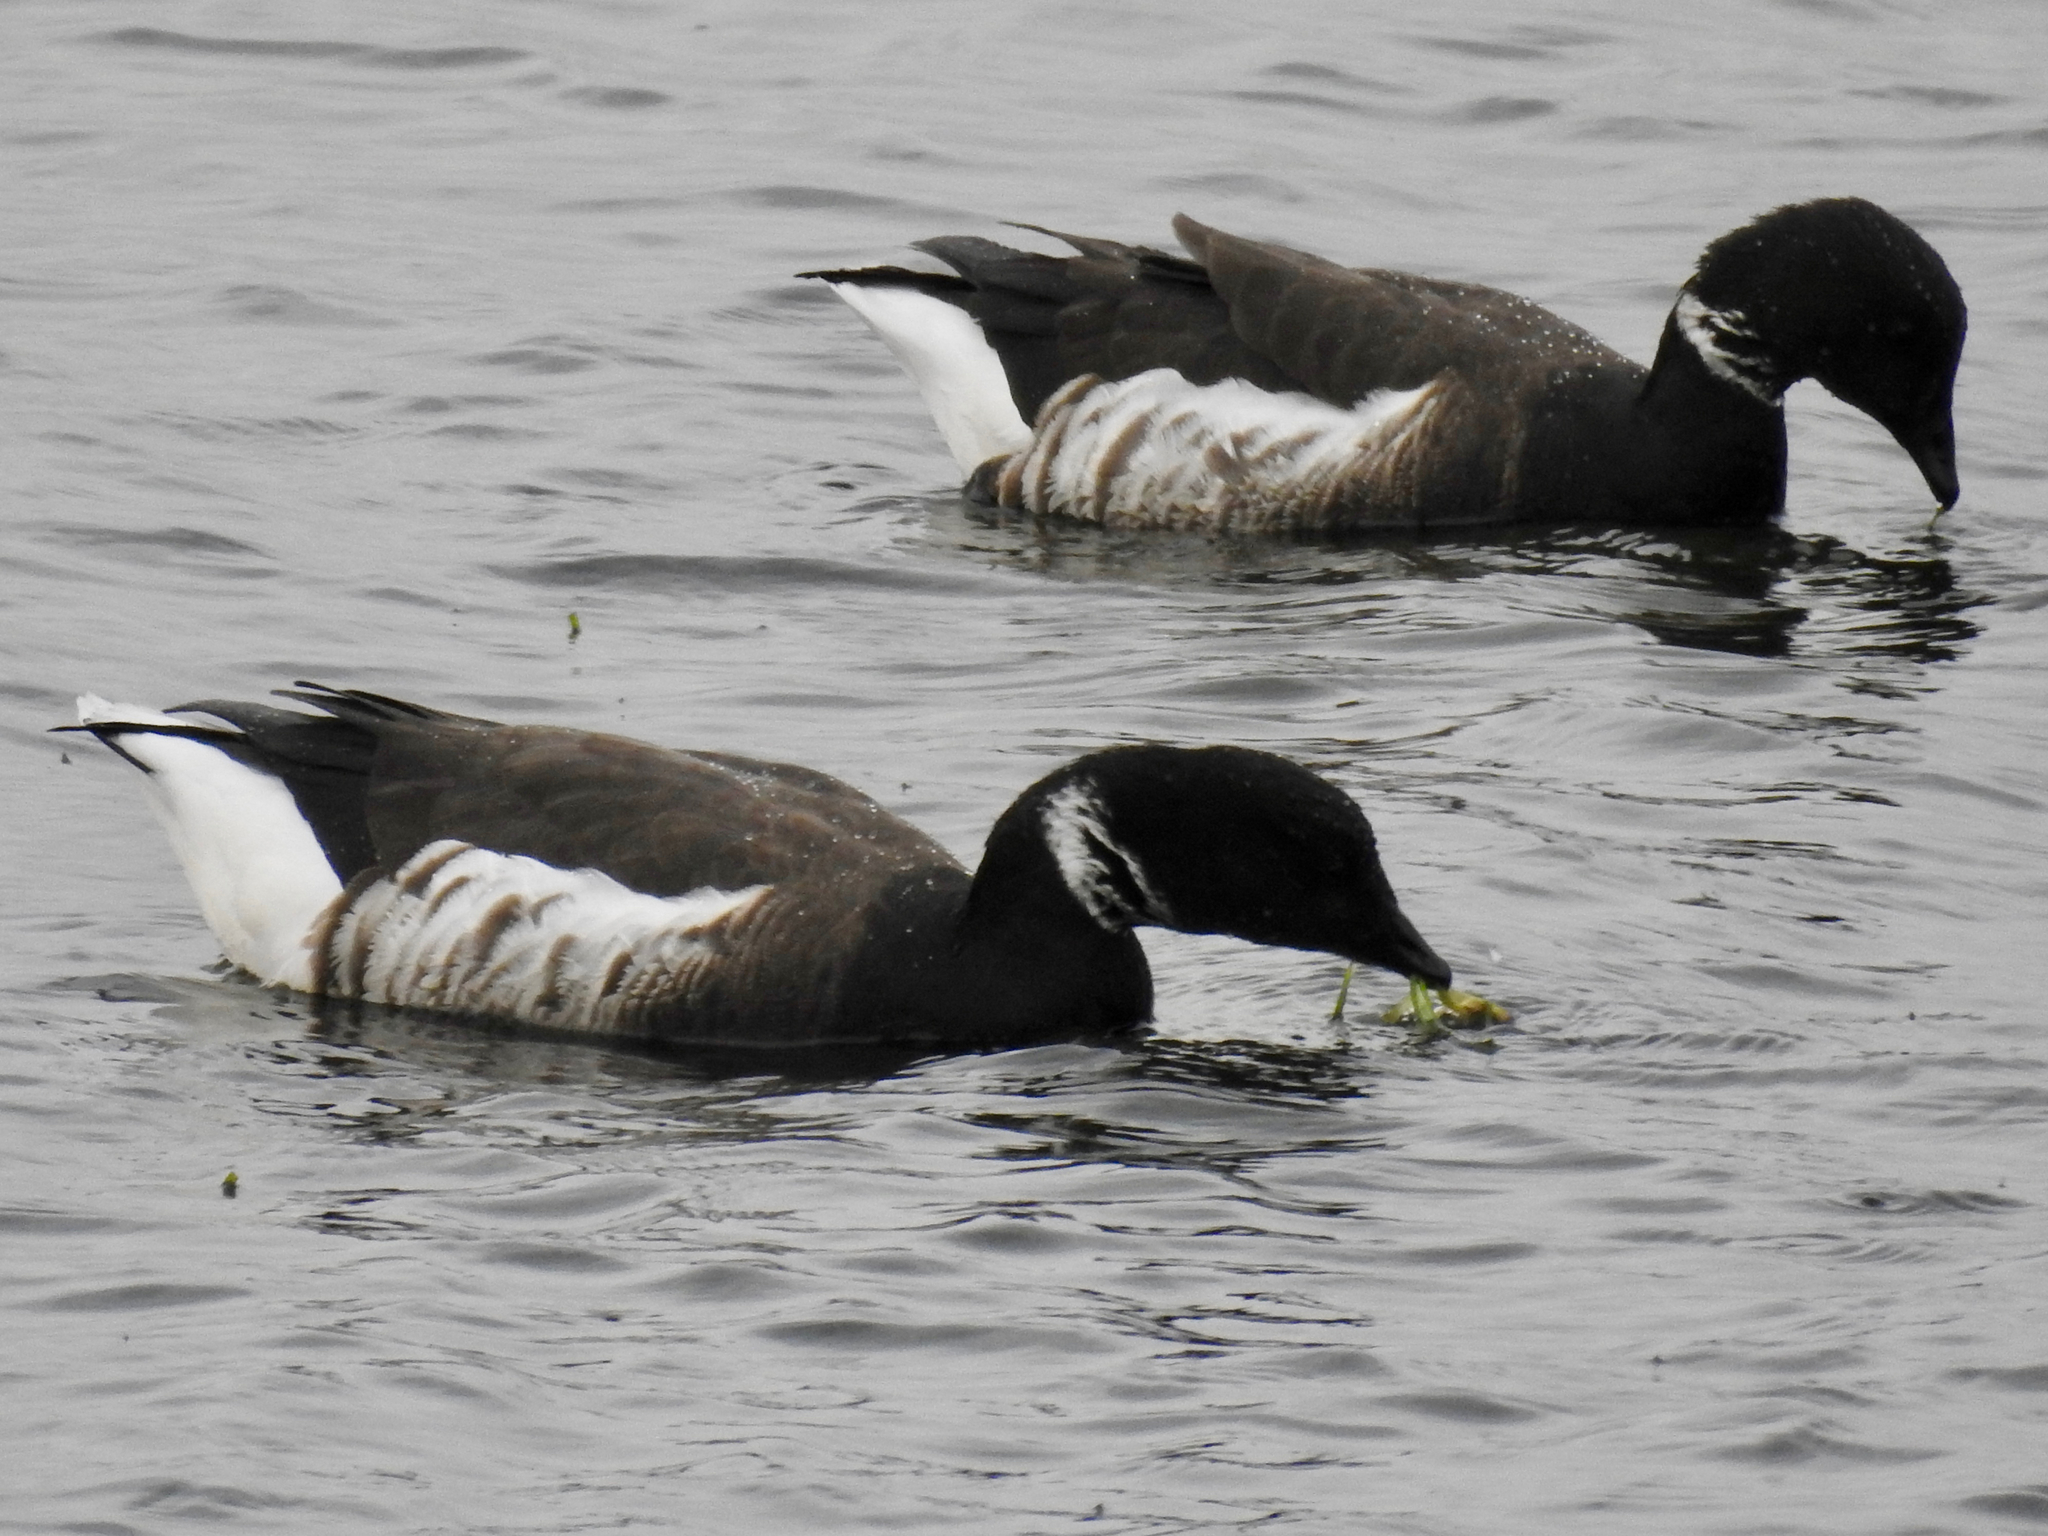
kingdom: Animalia
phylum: Chordata
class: Aves
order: Anseriformes
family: Anatidae
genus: Branta
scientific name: Branta bernicla
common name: Brant goose
